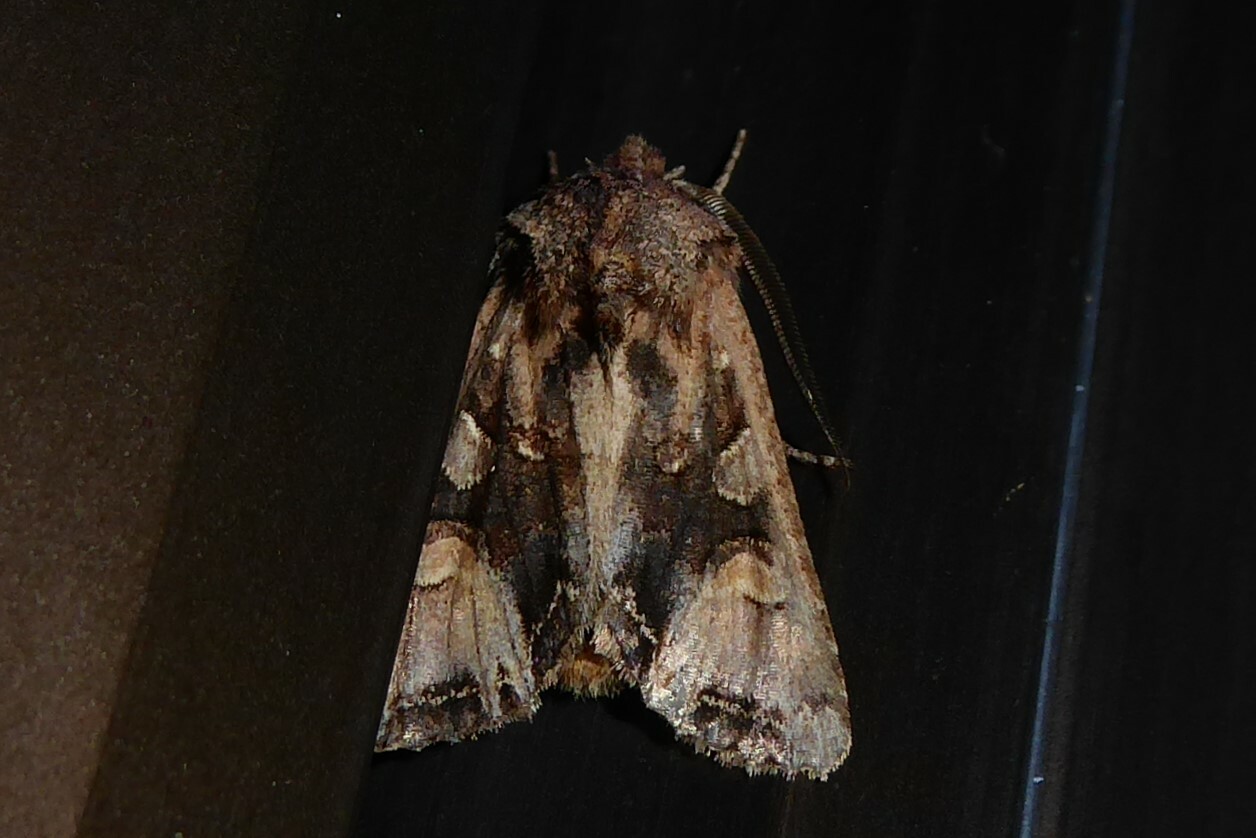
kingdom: Animalia
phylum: Arthropoda
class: Insecta
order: Lepidoptera
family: Noctuidae
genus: Ichneutica
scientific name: Ichneutica
